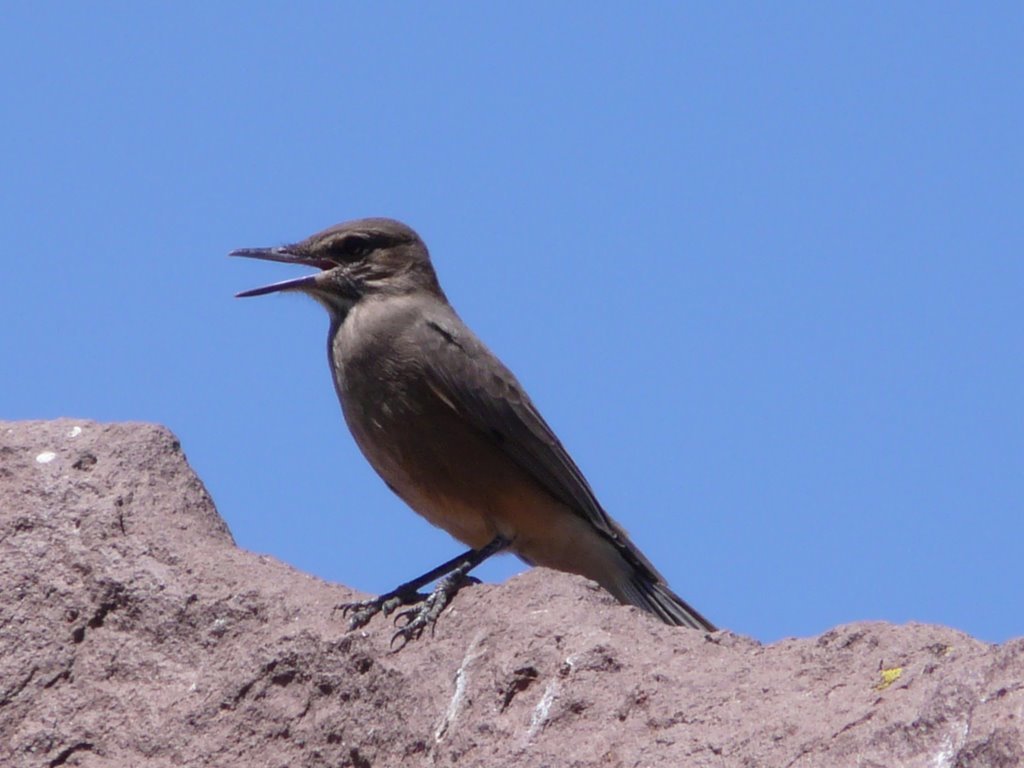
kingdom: Animalia
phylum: Chordata
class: Aves
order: Passeriformes
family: Tyrannidae
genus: Agriornis
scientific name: Agriornis montanus
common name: Black-billed shrike-tyrant
